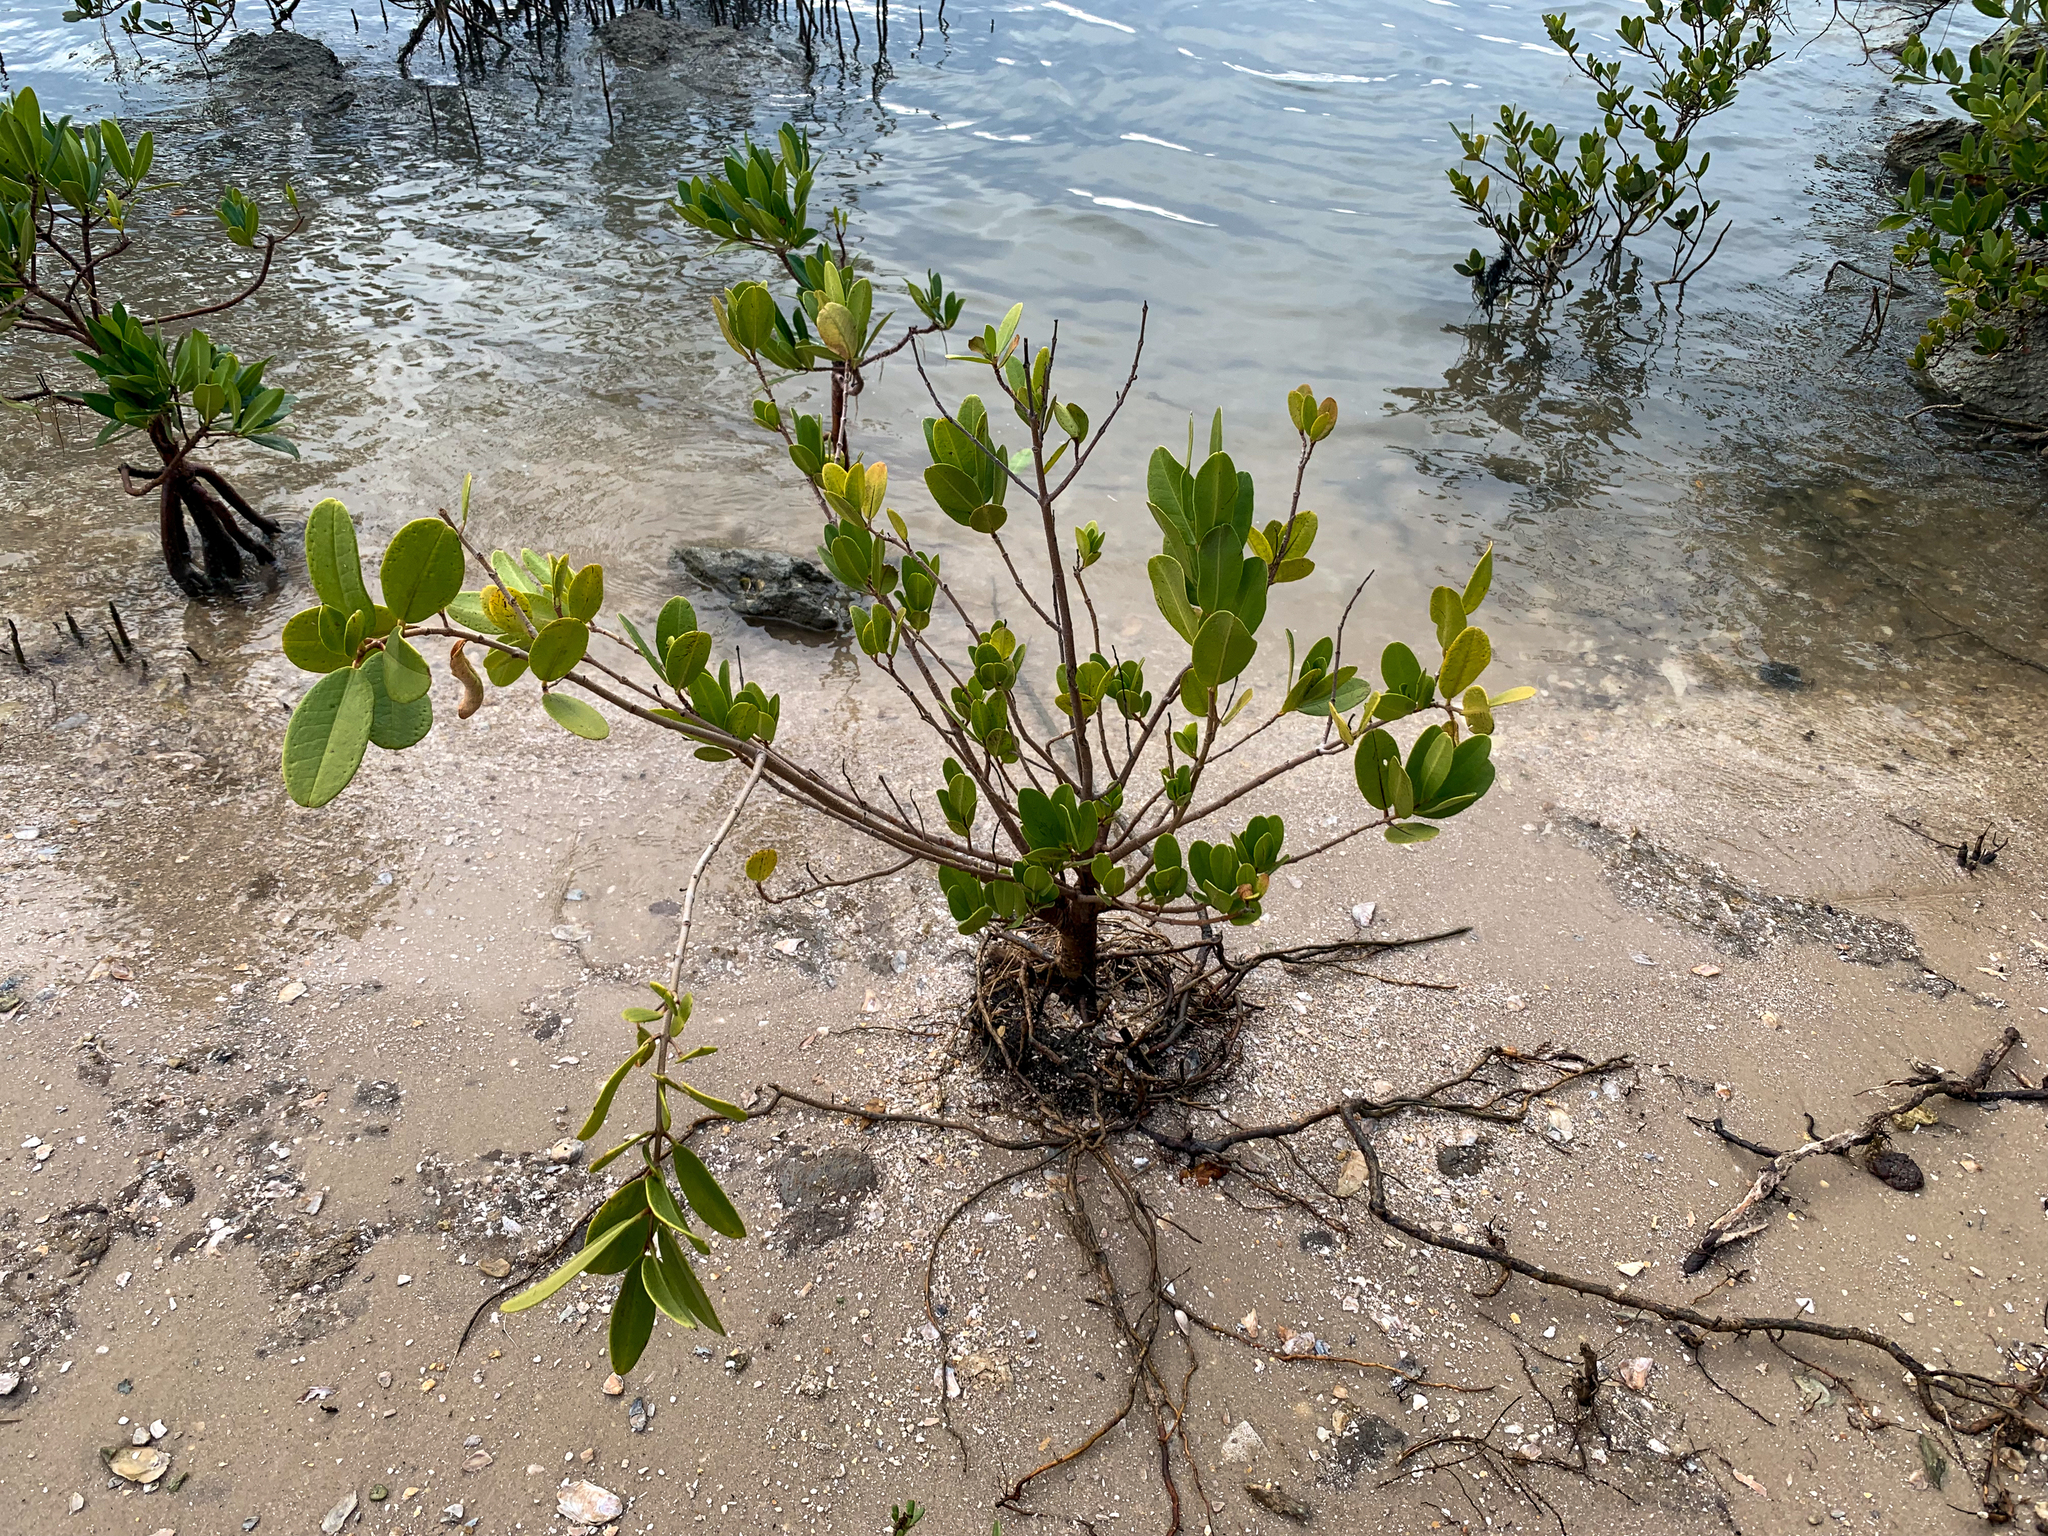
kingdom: Plantae
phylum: Tracheophyta
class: Magnoliopsida
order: Myrtales
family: Combretaceae
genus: Laguncularia
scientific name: Laguncularia racemosa
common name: White mangrove
